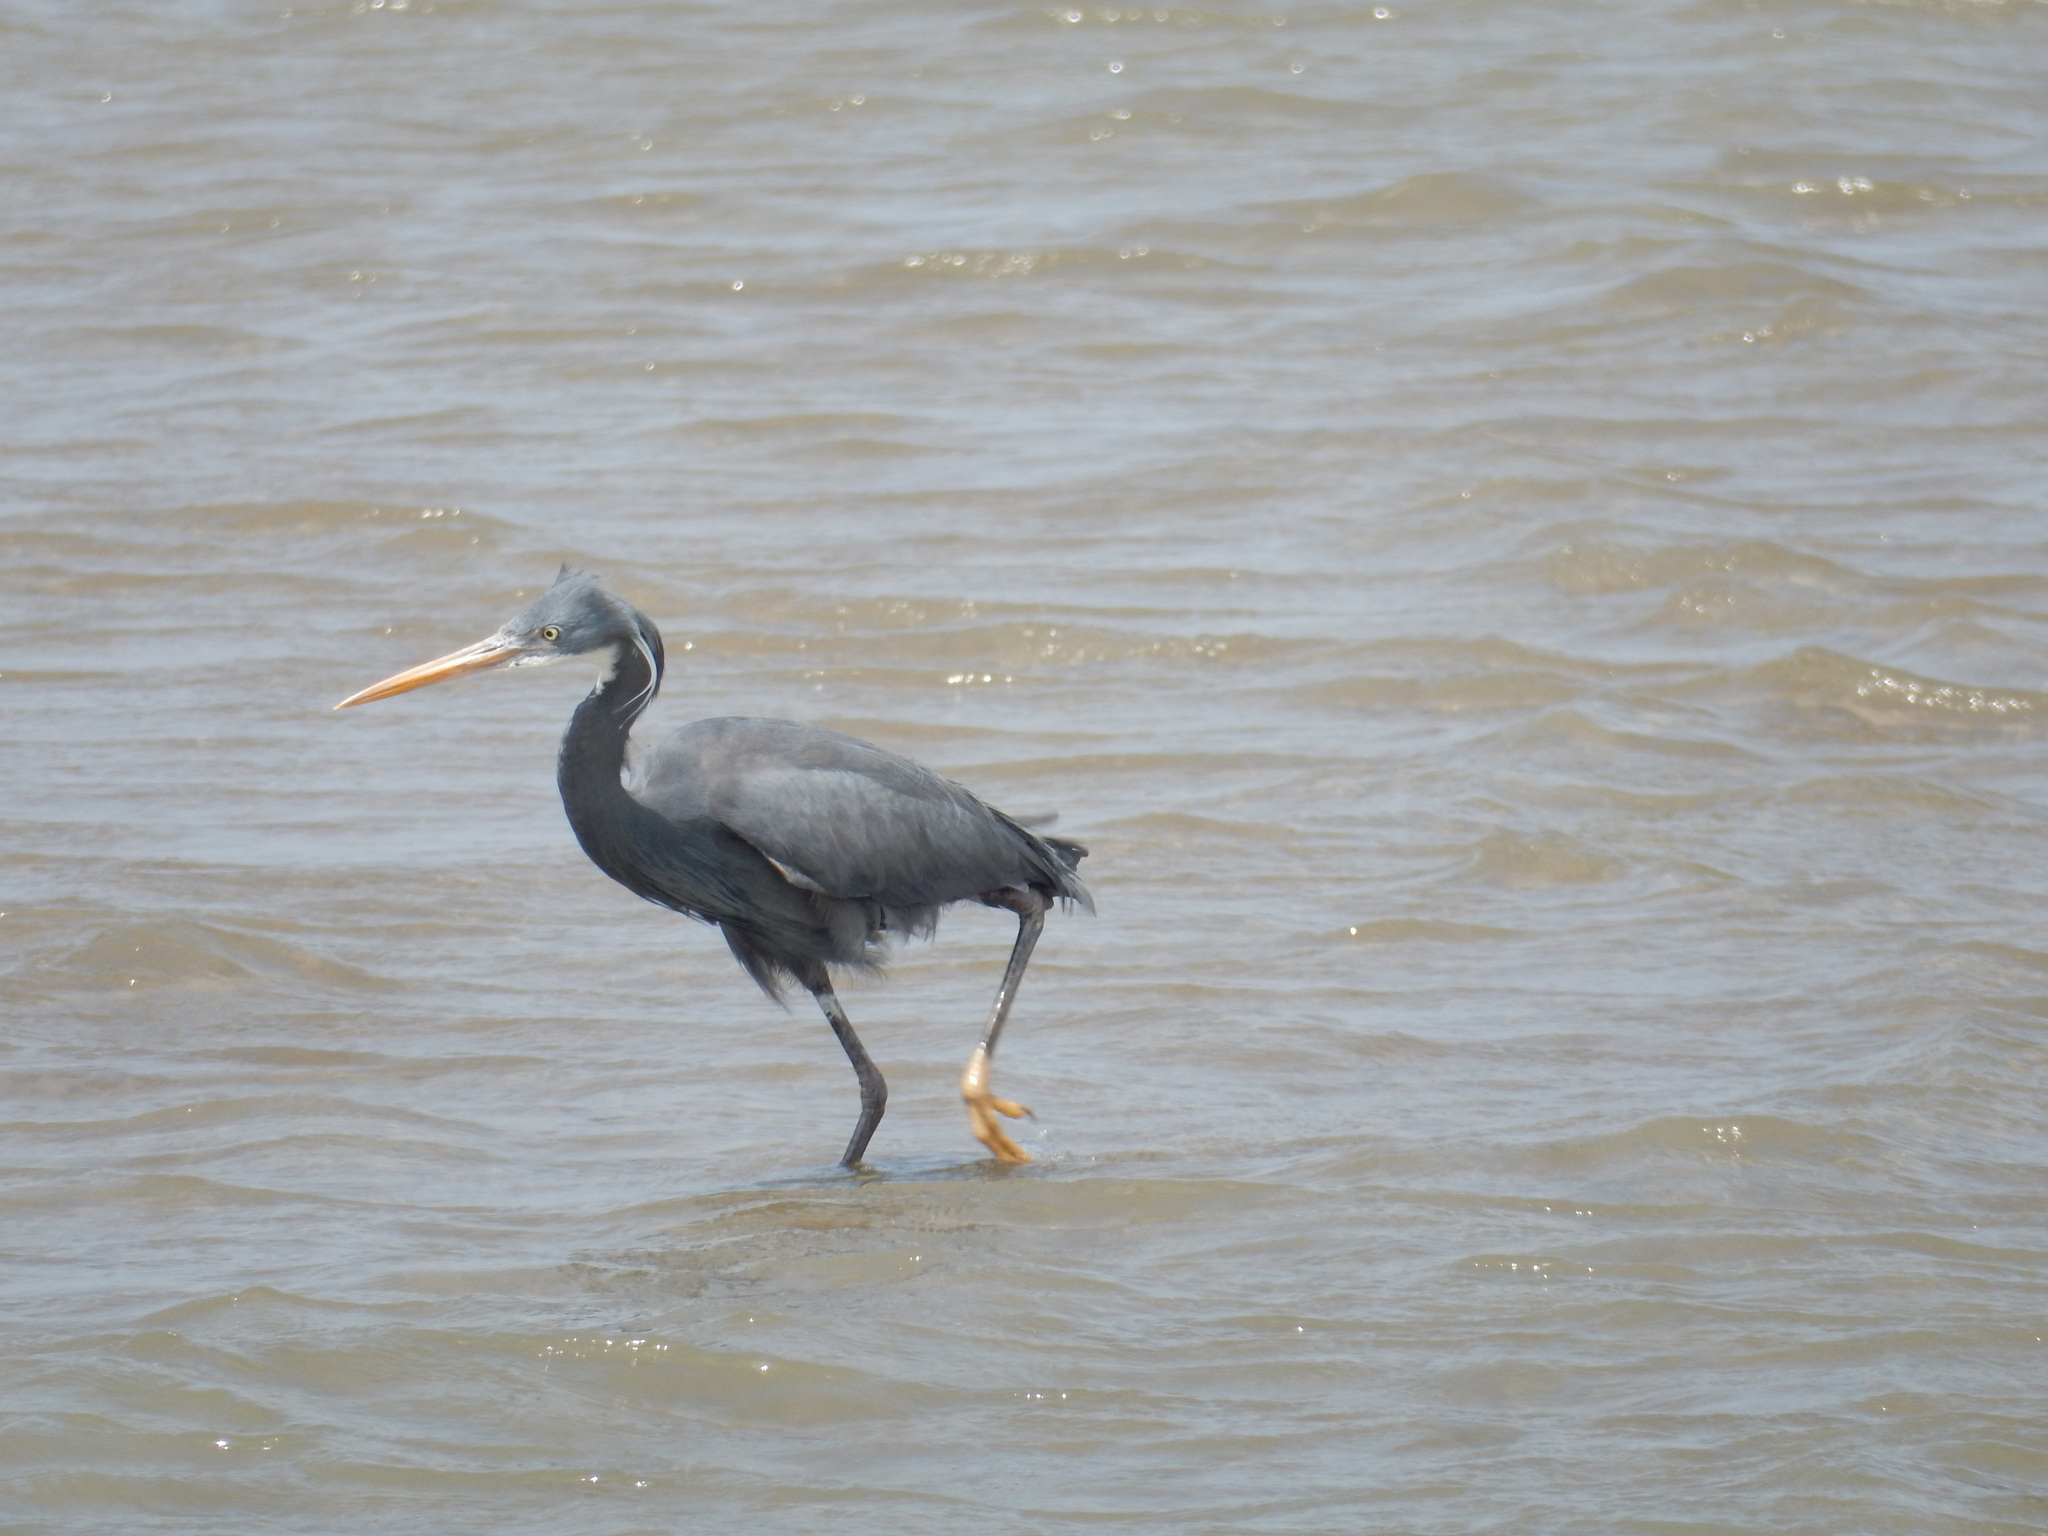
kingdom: Animalia
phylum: Chordata
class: Aves
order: Pelecaniformes
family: Ardeidae
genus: Egretta
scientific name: Egretta gularis
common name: Western reef-heron
